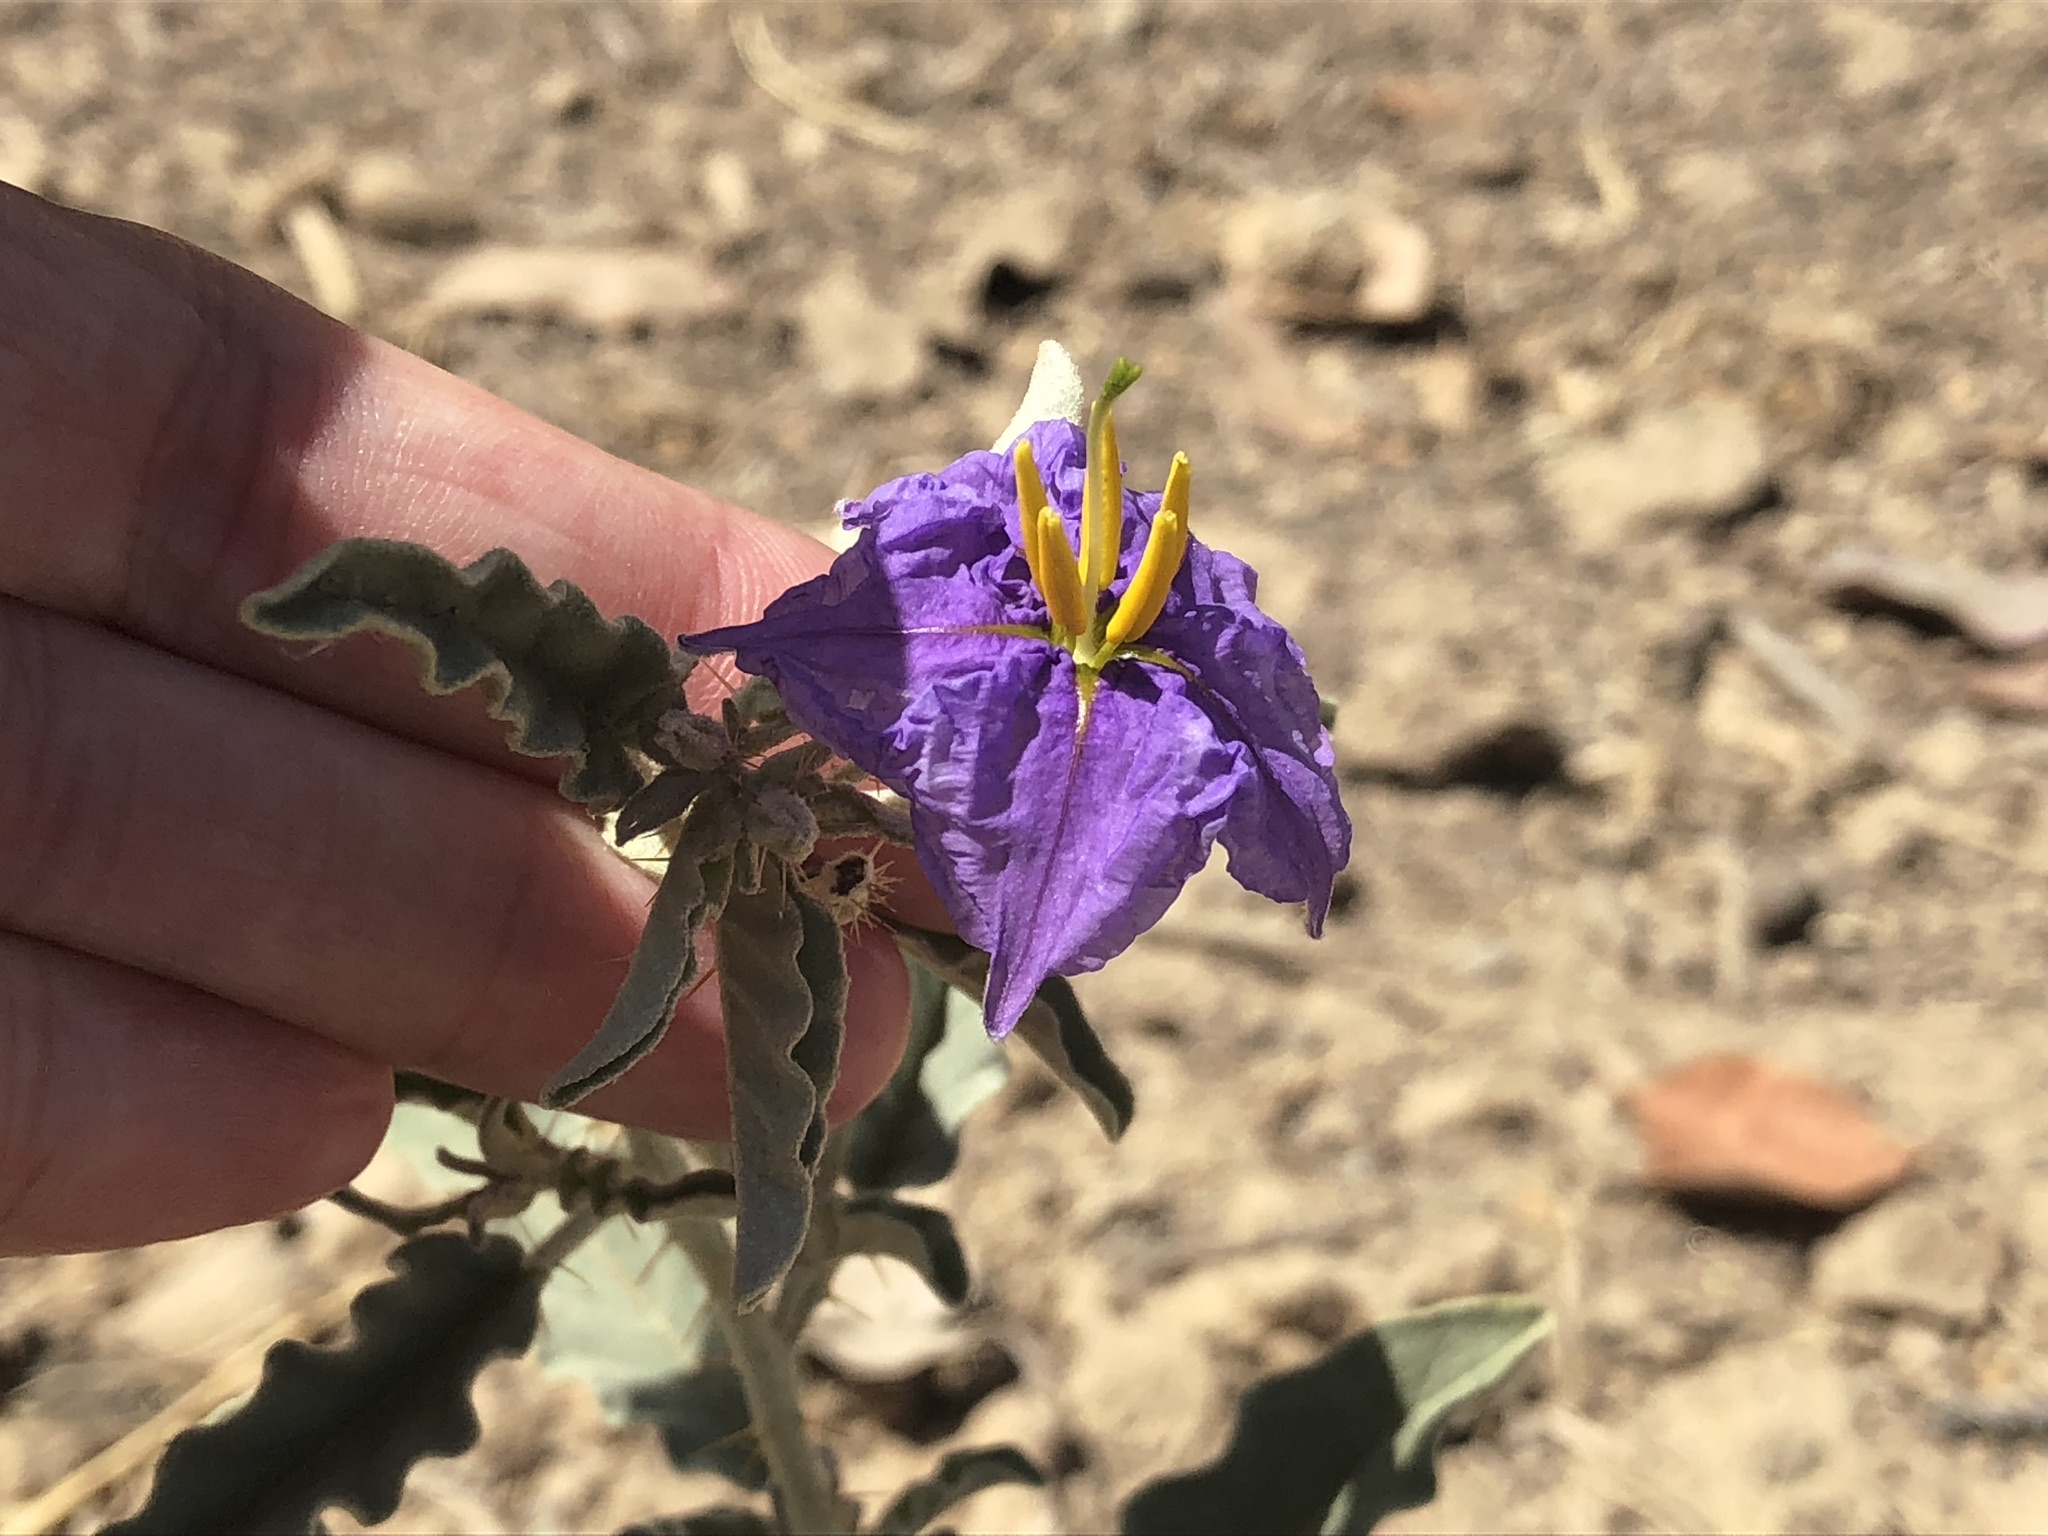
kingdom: Plantae
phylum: Tracheophyta
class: Magnoliopsida
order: Solanales
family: Solanaceae
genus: Solanum
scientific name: Solanum elaeagnifolium
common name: Silverleaf nightshade
